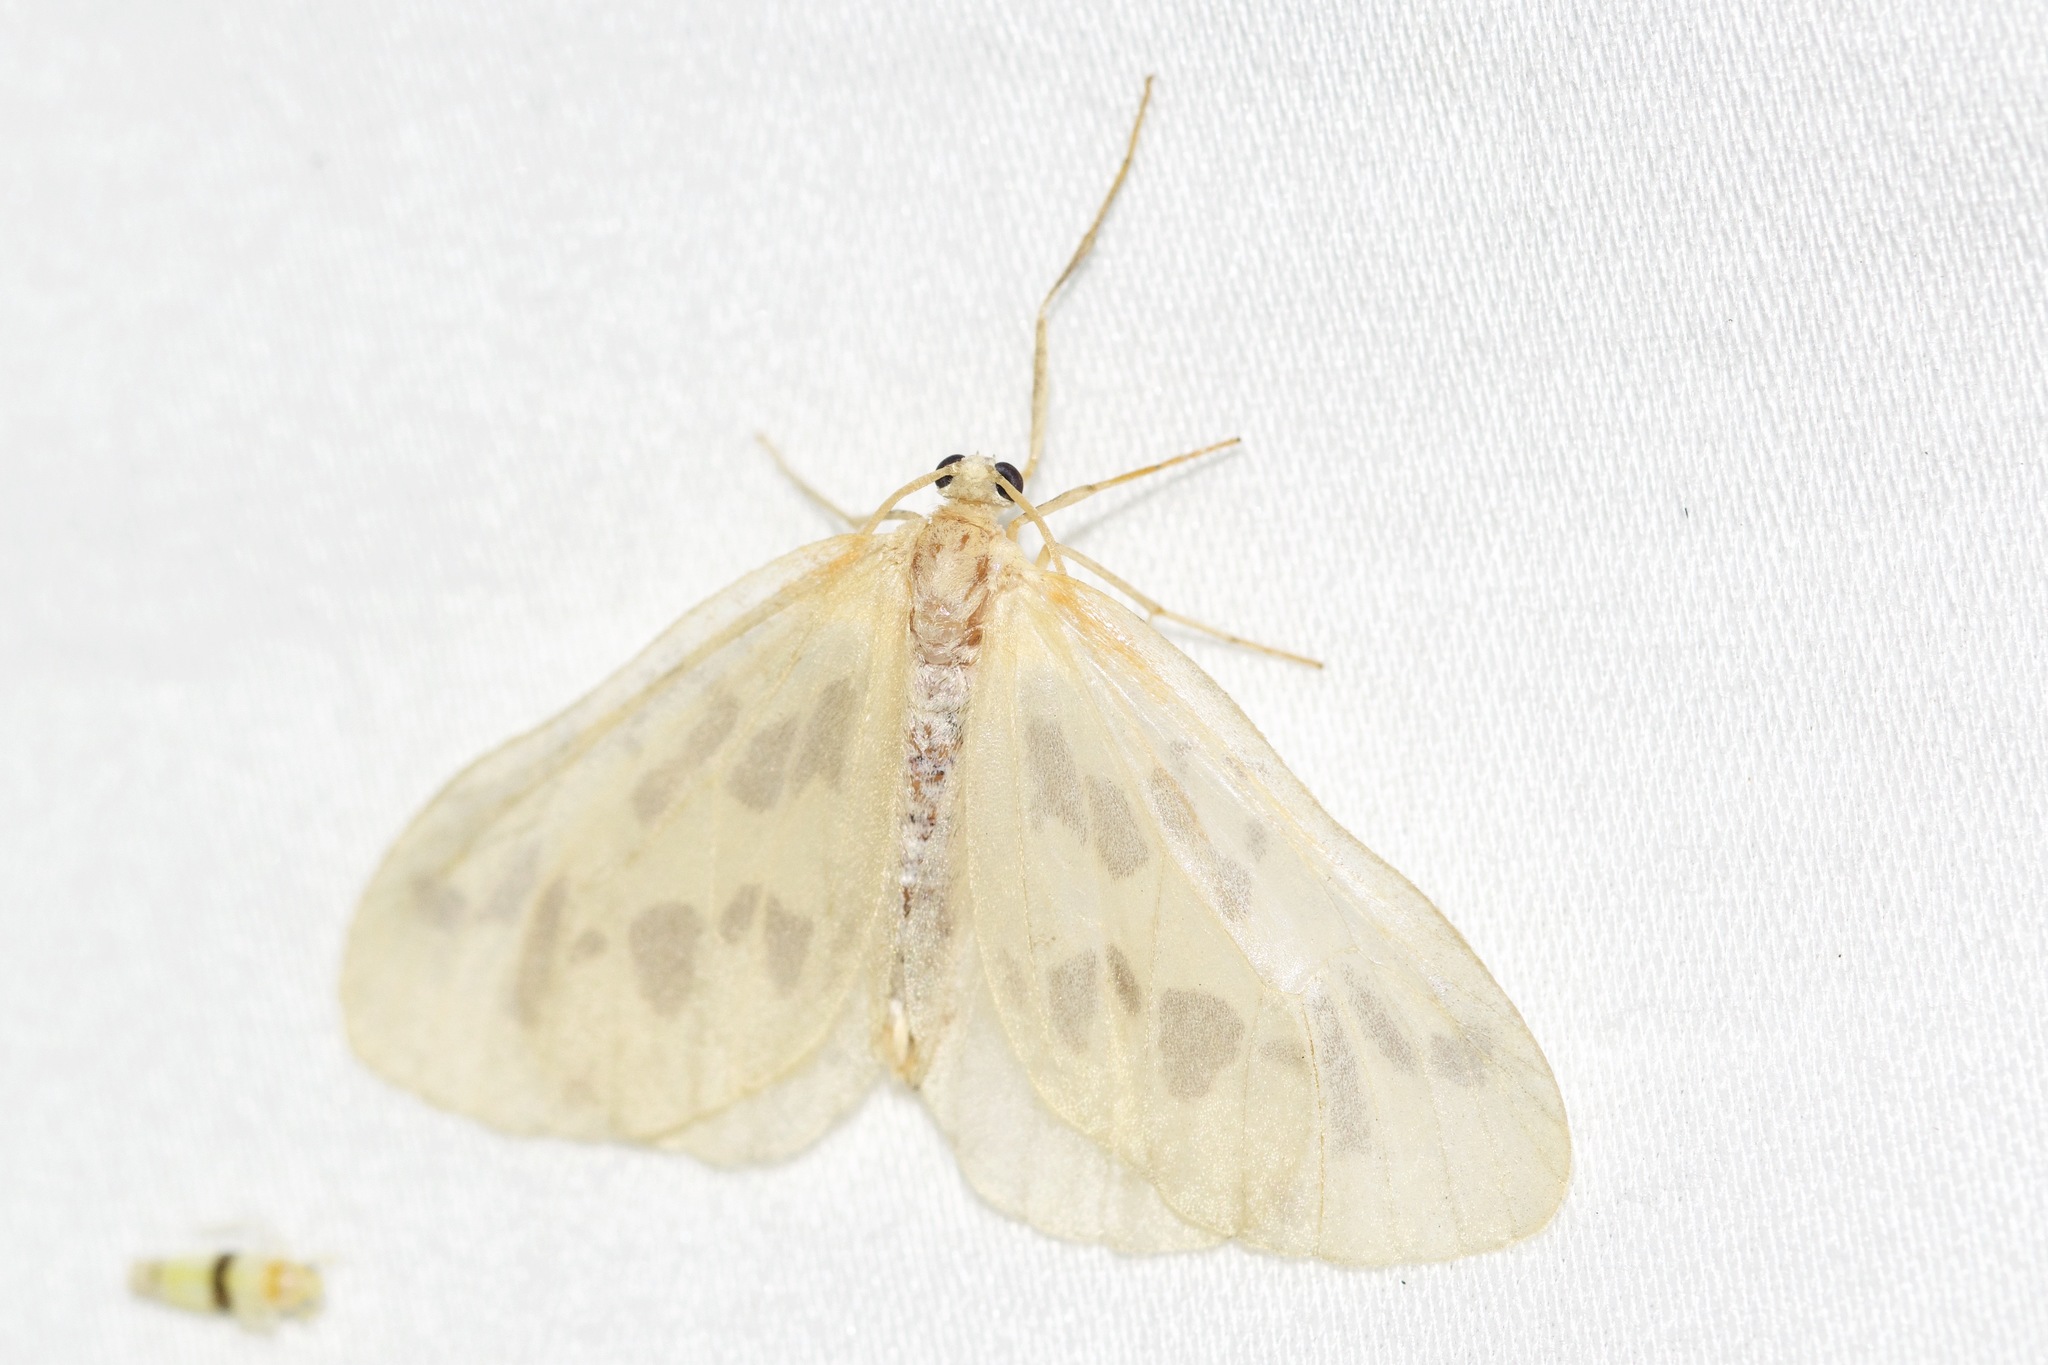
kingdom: Animalia
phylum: Arthropoda
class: Insecta
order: Lepidoptera
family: Geometridae
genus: Eubaphe
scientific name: Eubaphe mendica
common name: Beggar
